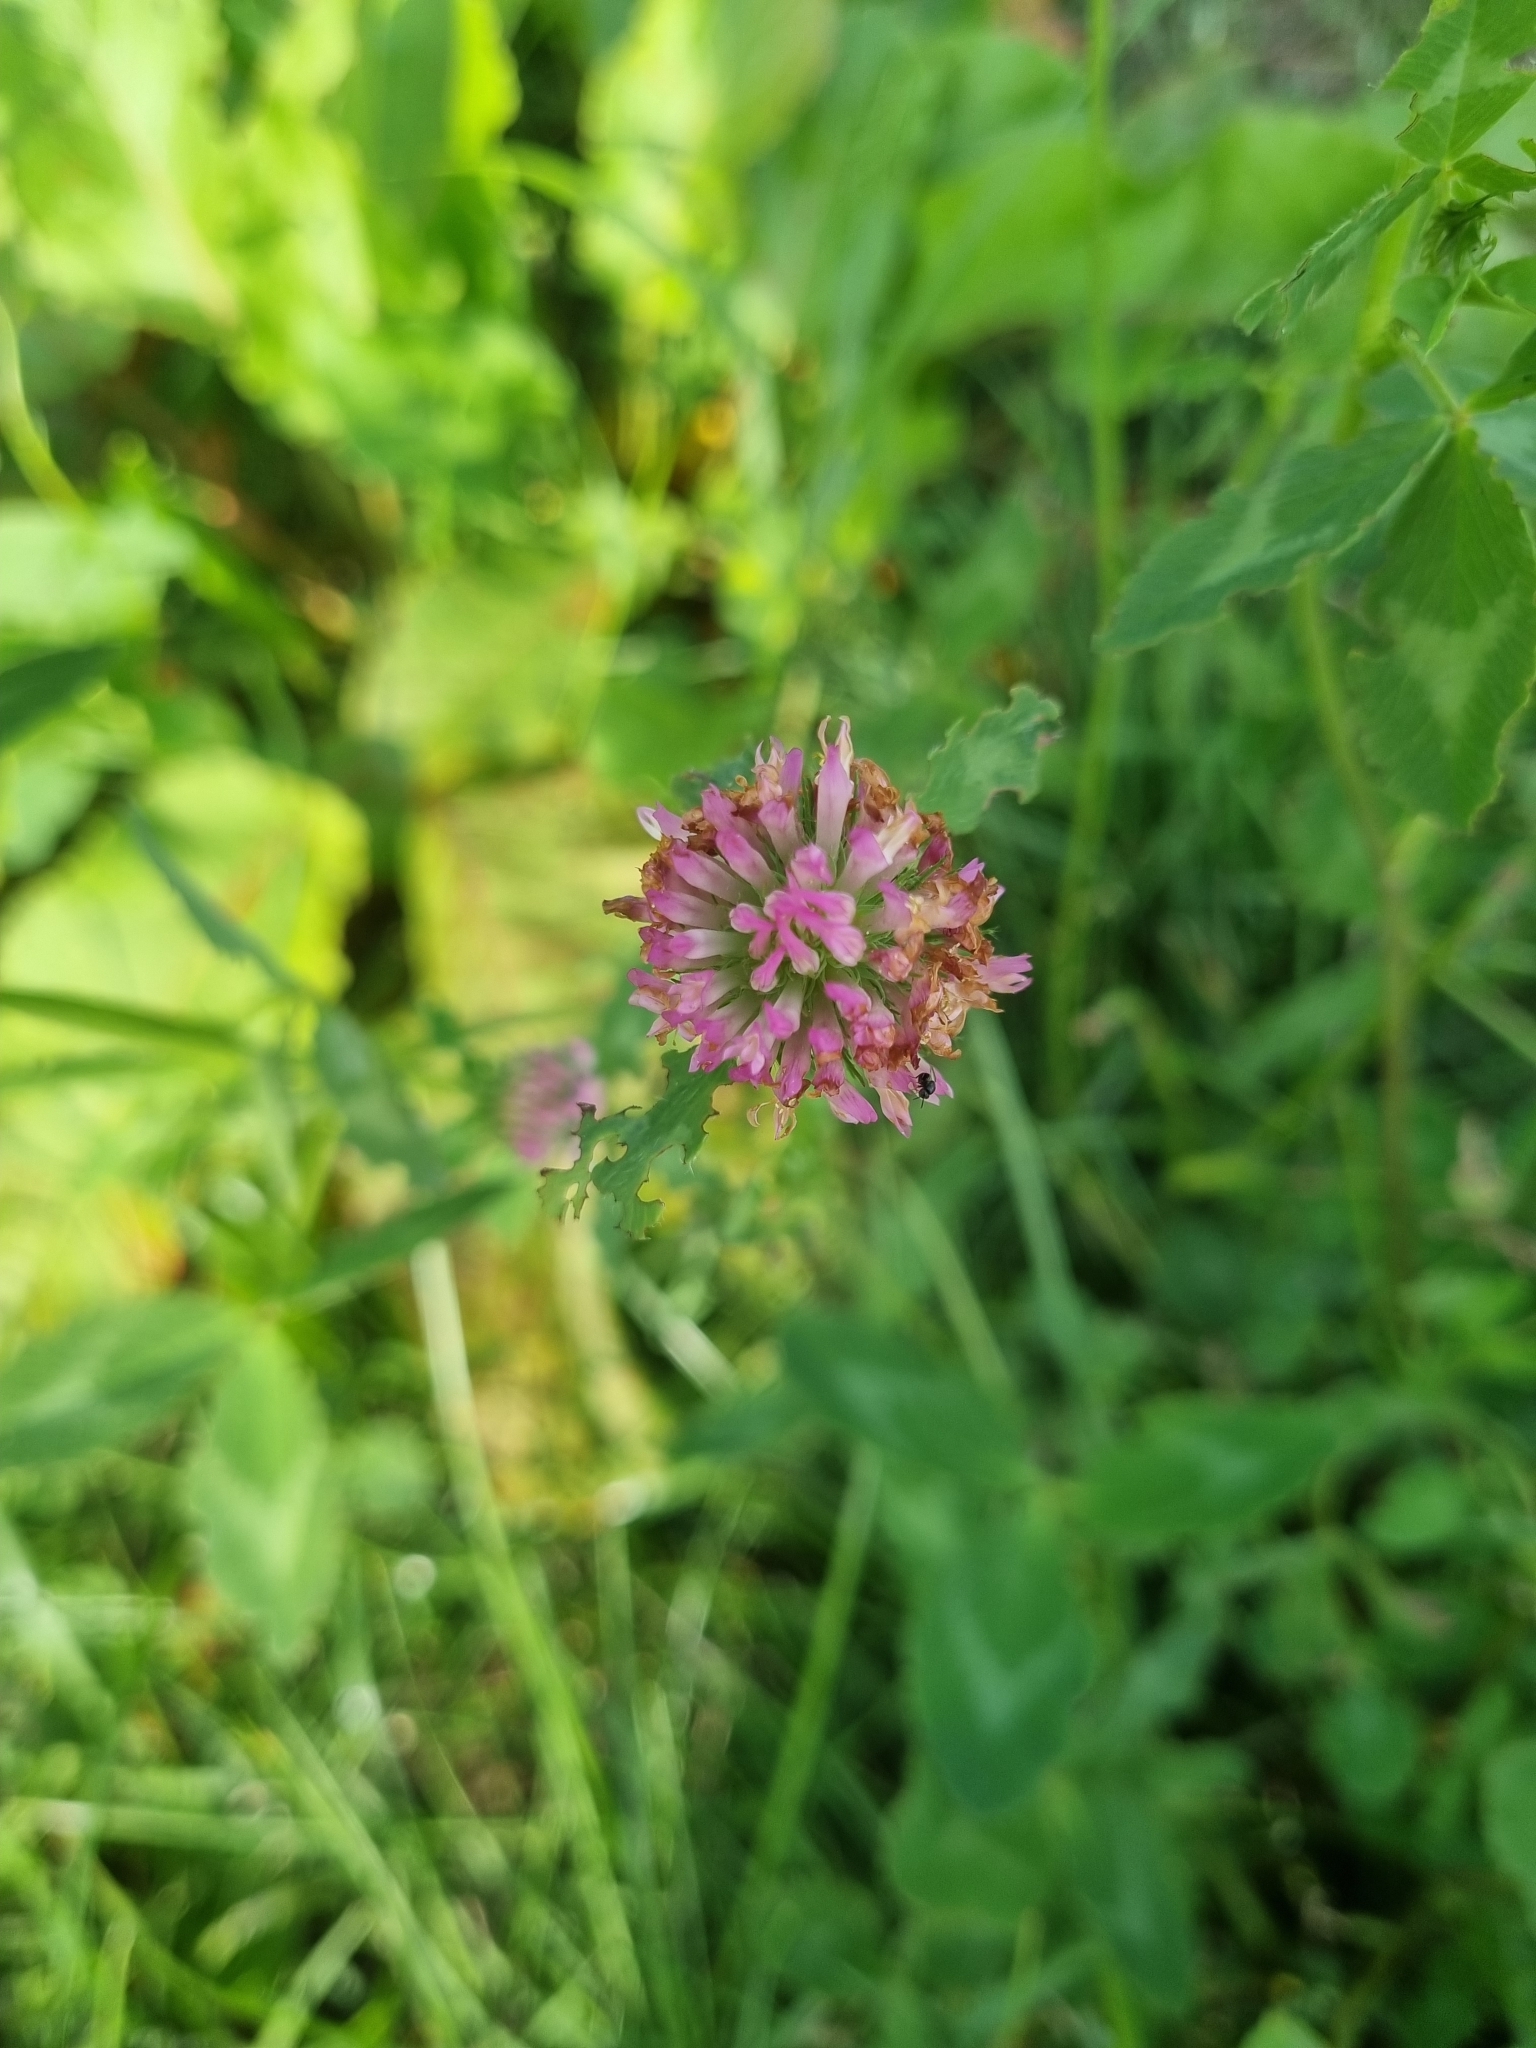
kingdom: Plantae
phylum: Tracheophyta
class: Magnoliopsida
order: Fabales
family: Fabaceae
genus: Trifolium
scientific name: Trifolium pratense
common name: Red clover
